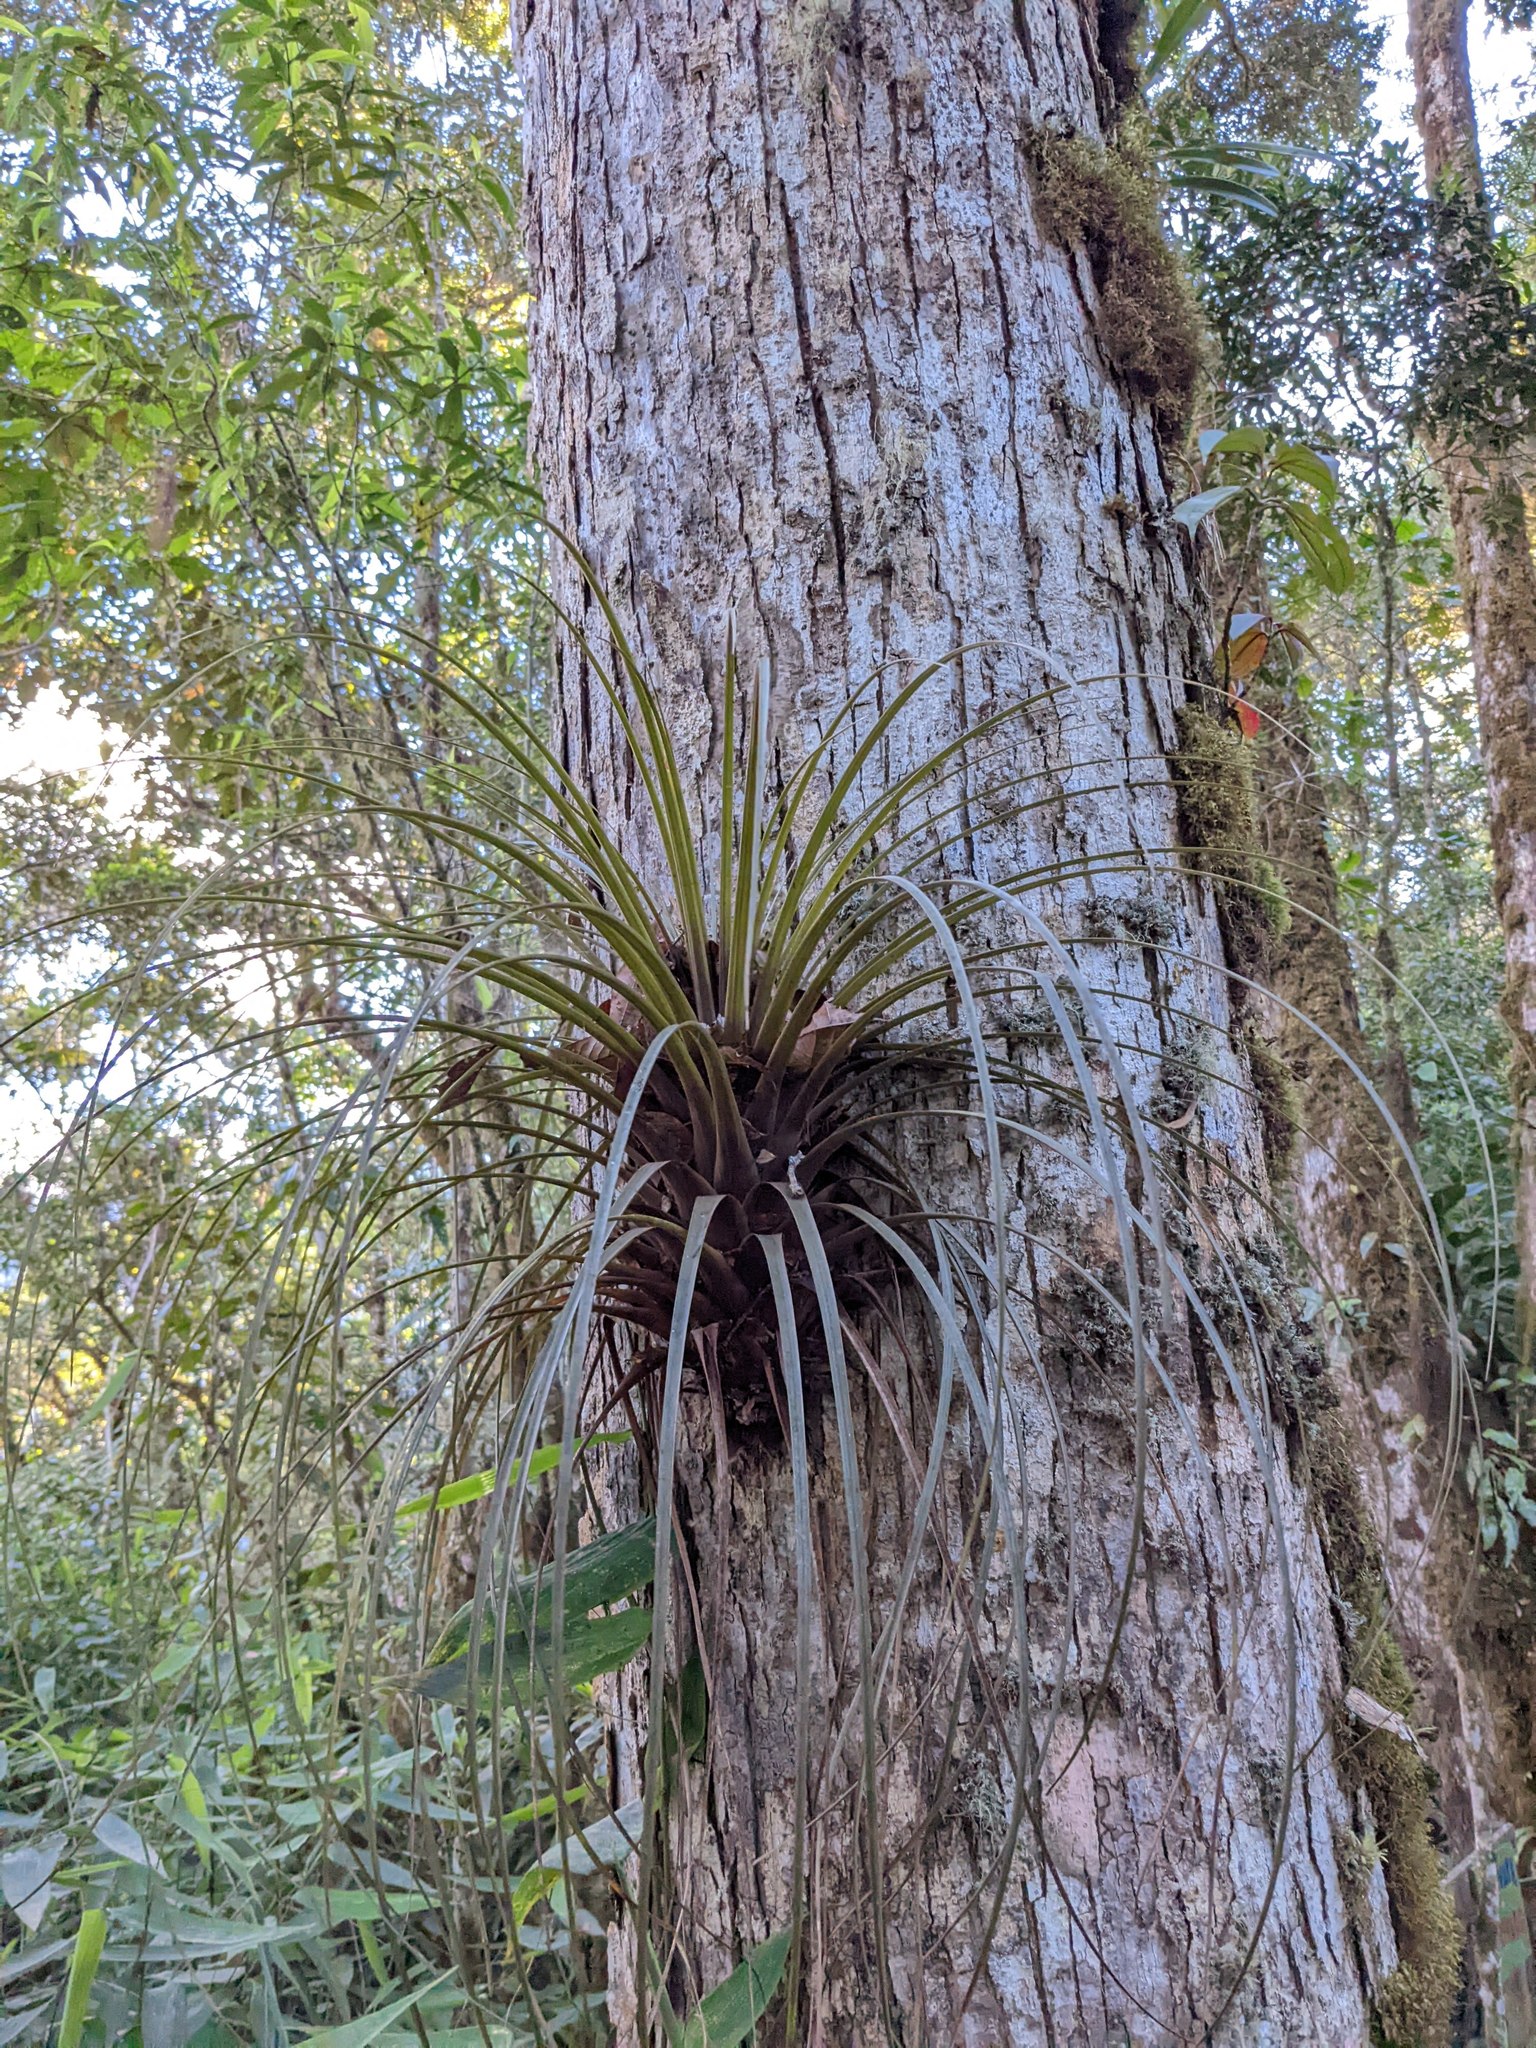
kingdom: Plantae
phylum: Tracheophyta
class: Liliopsida
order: Poales
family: Bromeliaceae
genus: Tillandsia
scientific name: Tillandsia longifolia
